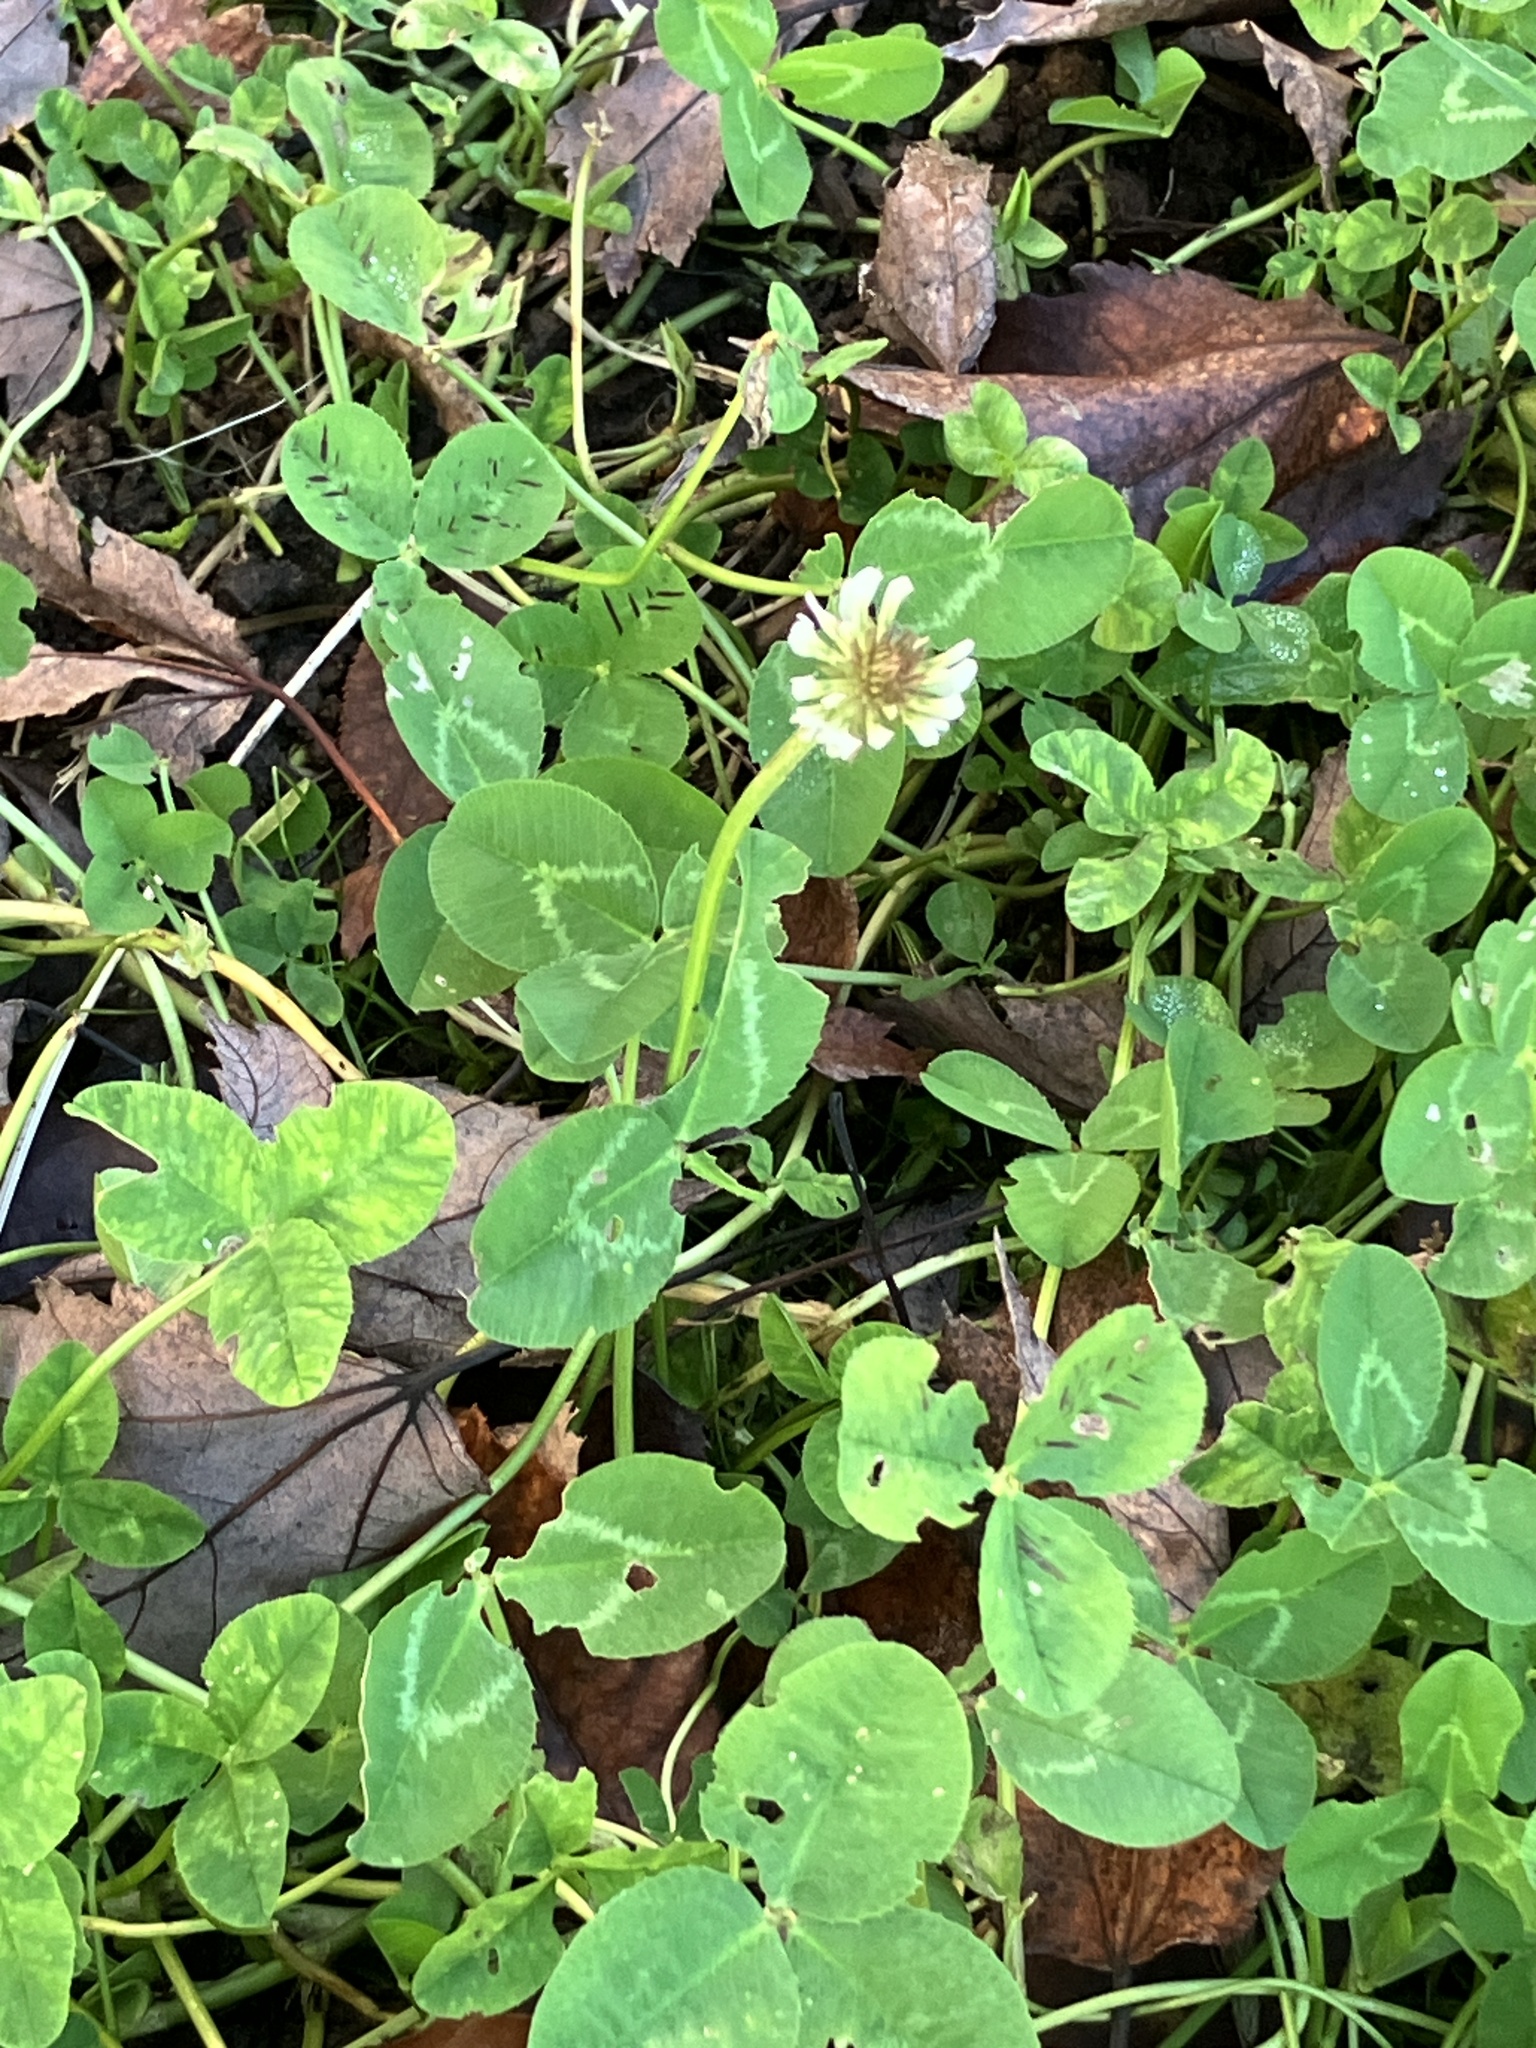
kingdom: Plantae
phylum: Tracheophyta
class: Magnoliopsida
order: Fabales
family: Fabaceae
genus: Trifolium
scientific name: Trifolium repens
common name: White clover
